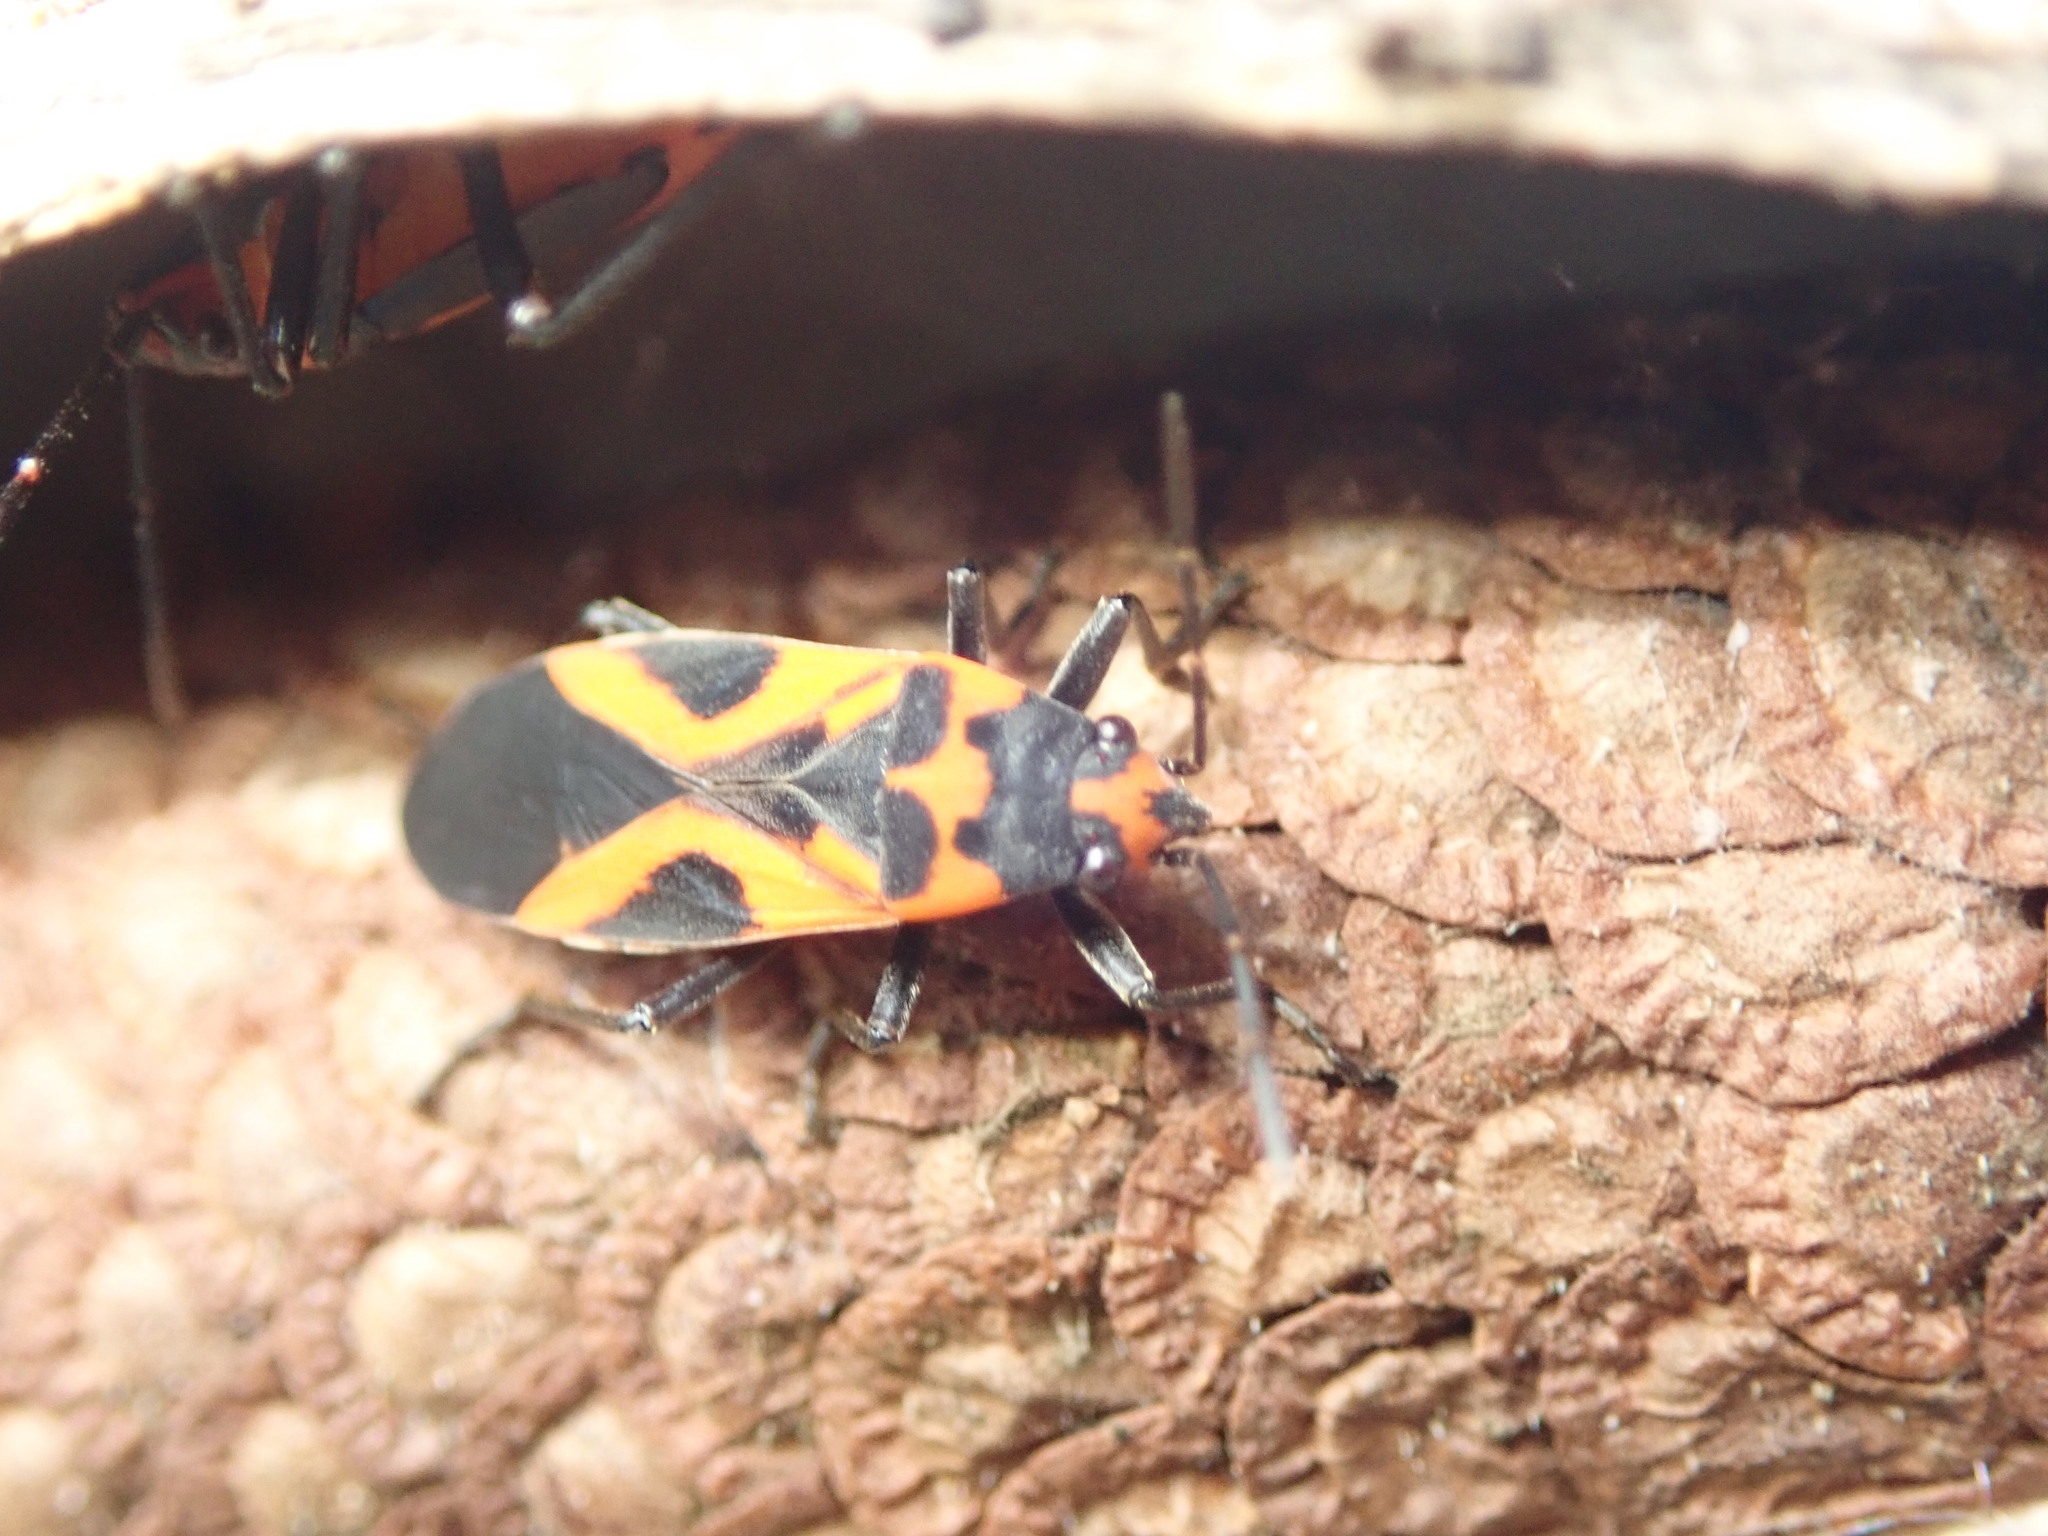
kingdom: Animalia
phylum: Arthropoda
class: Insecta
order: Hemiptera
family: Lygaeidae
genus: Lygaeus
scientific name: Lygaeus turcicus
